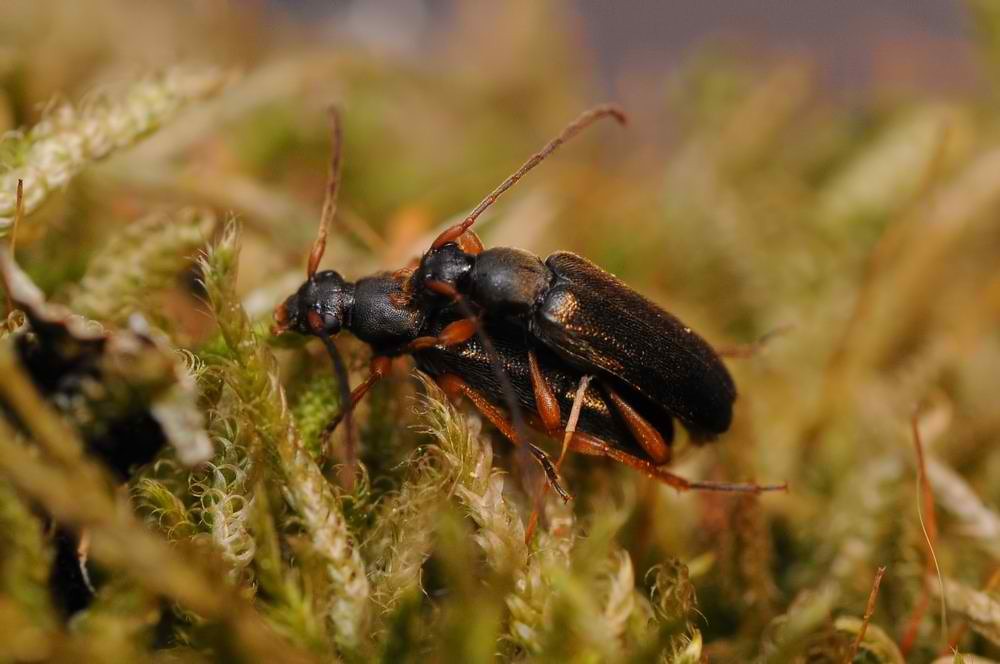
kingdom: Animalia
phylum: Arthropoda
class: Insecta
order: Coleoptera
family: Cerambycidae
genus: Alosterna
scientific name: Alosterna ingrica
